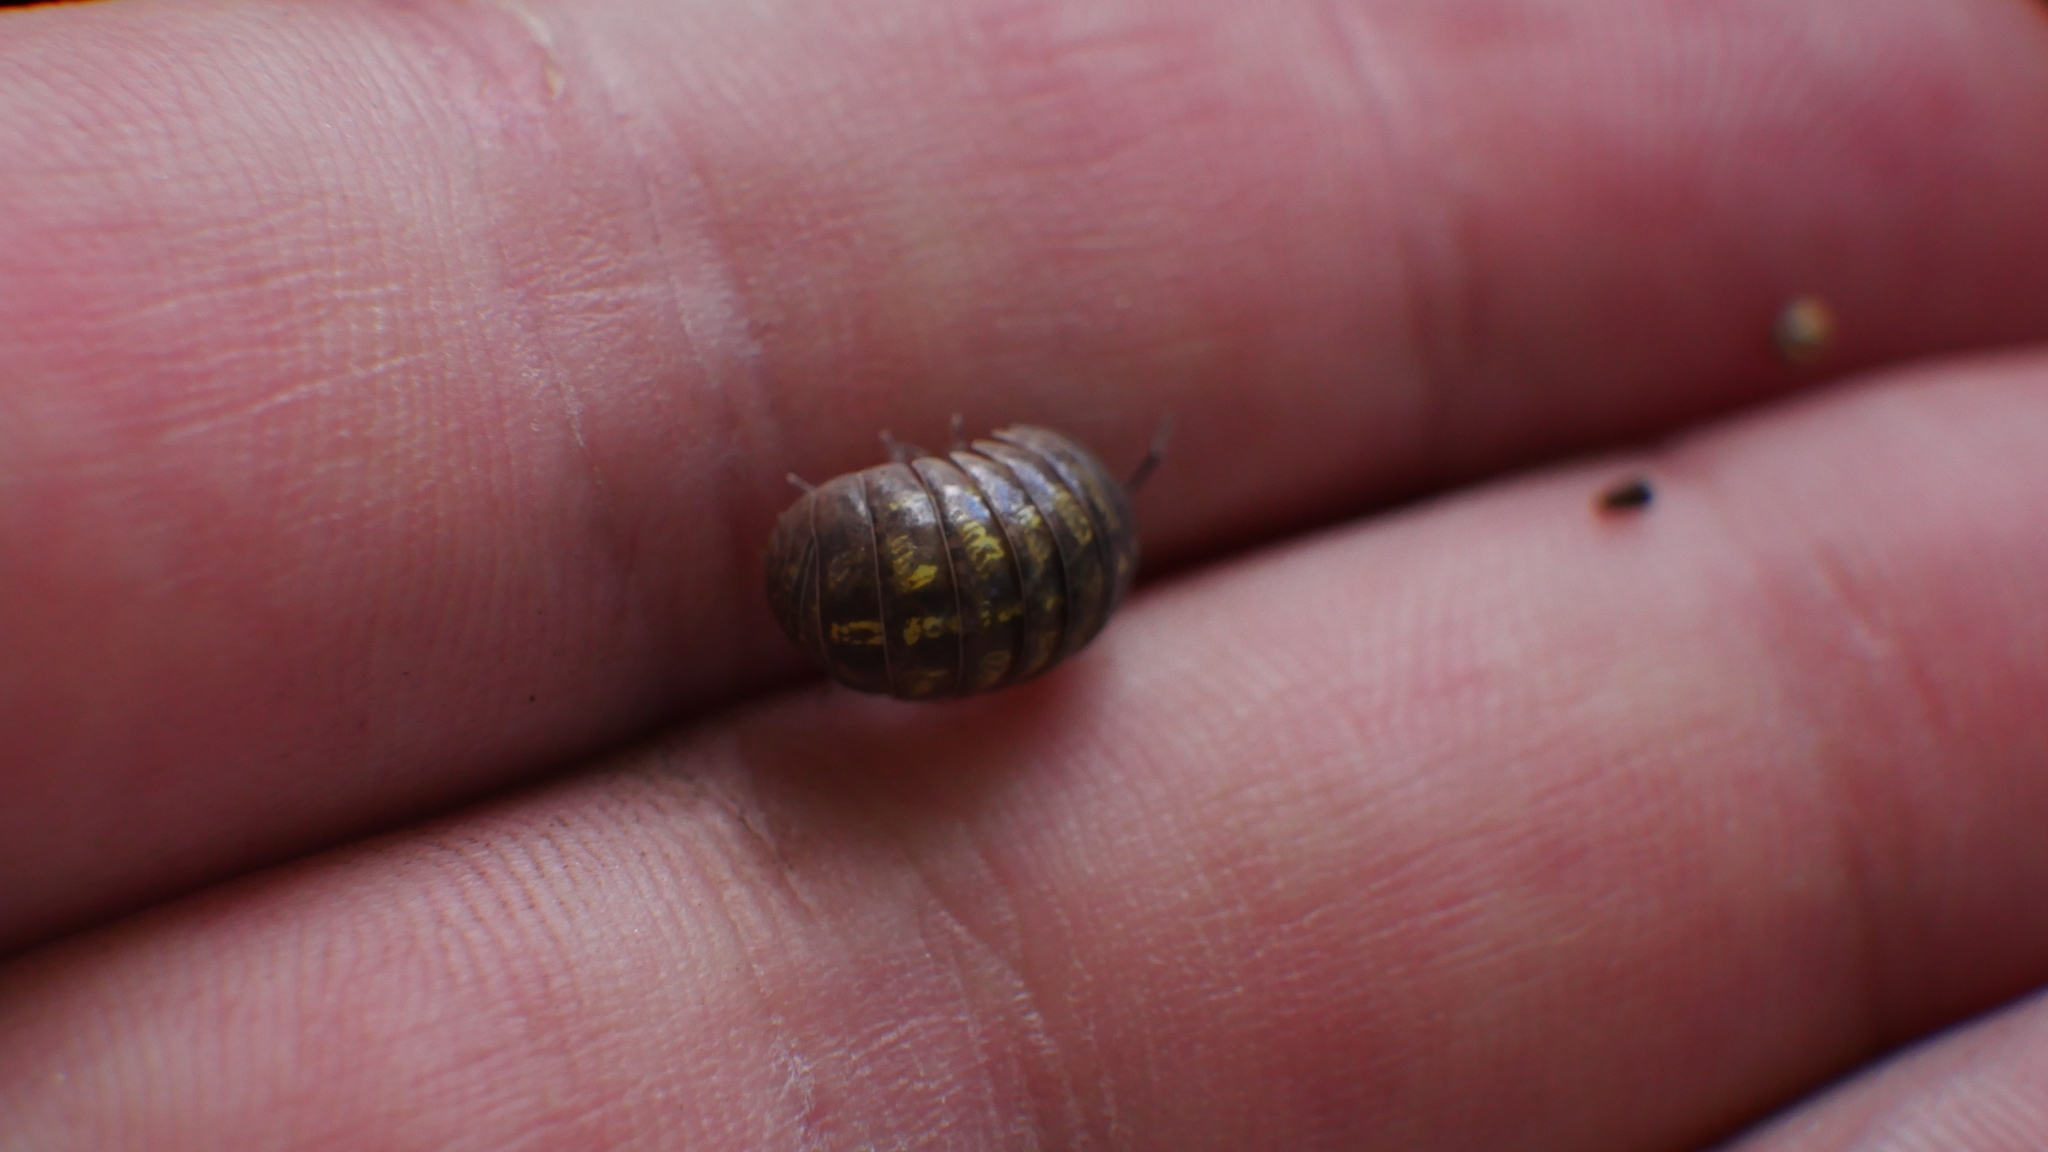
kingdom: Animalia
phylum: Arthropoda
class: Malacostraca
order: Isopoda
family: Armadillidiidae
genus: Armadillidium
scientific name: Armadillidium vulgare
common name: Common pill woodlouse
